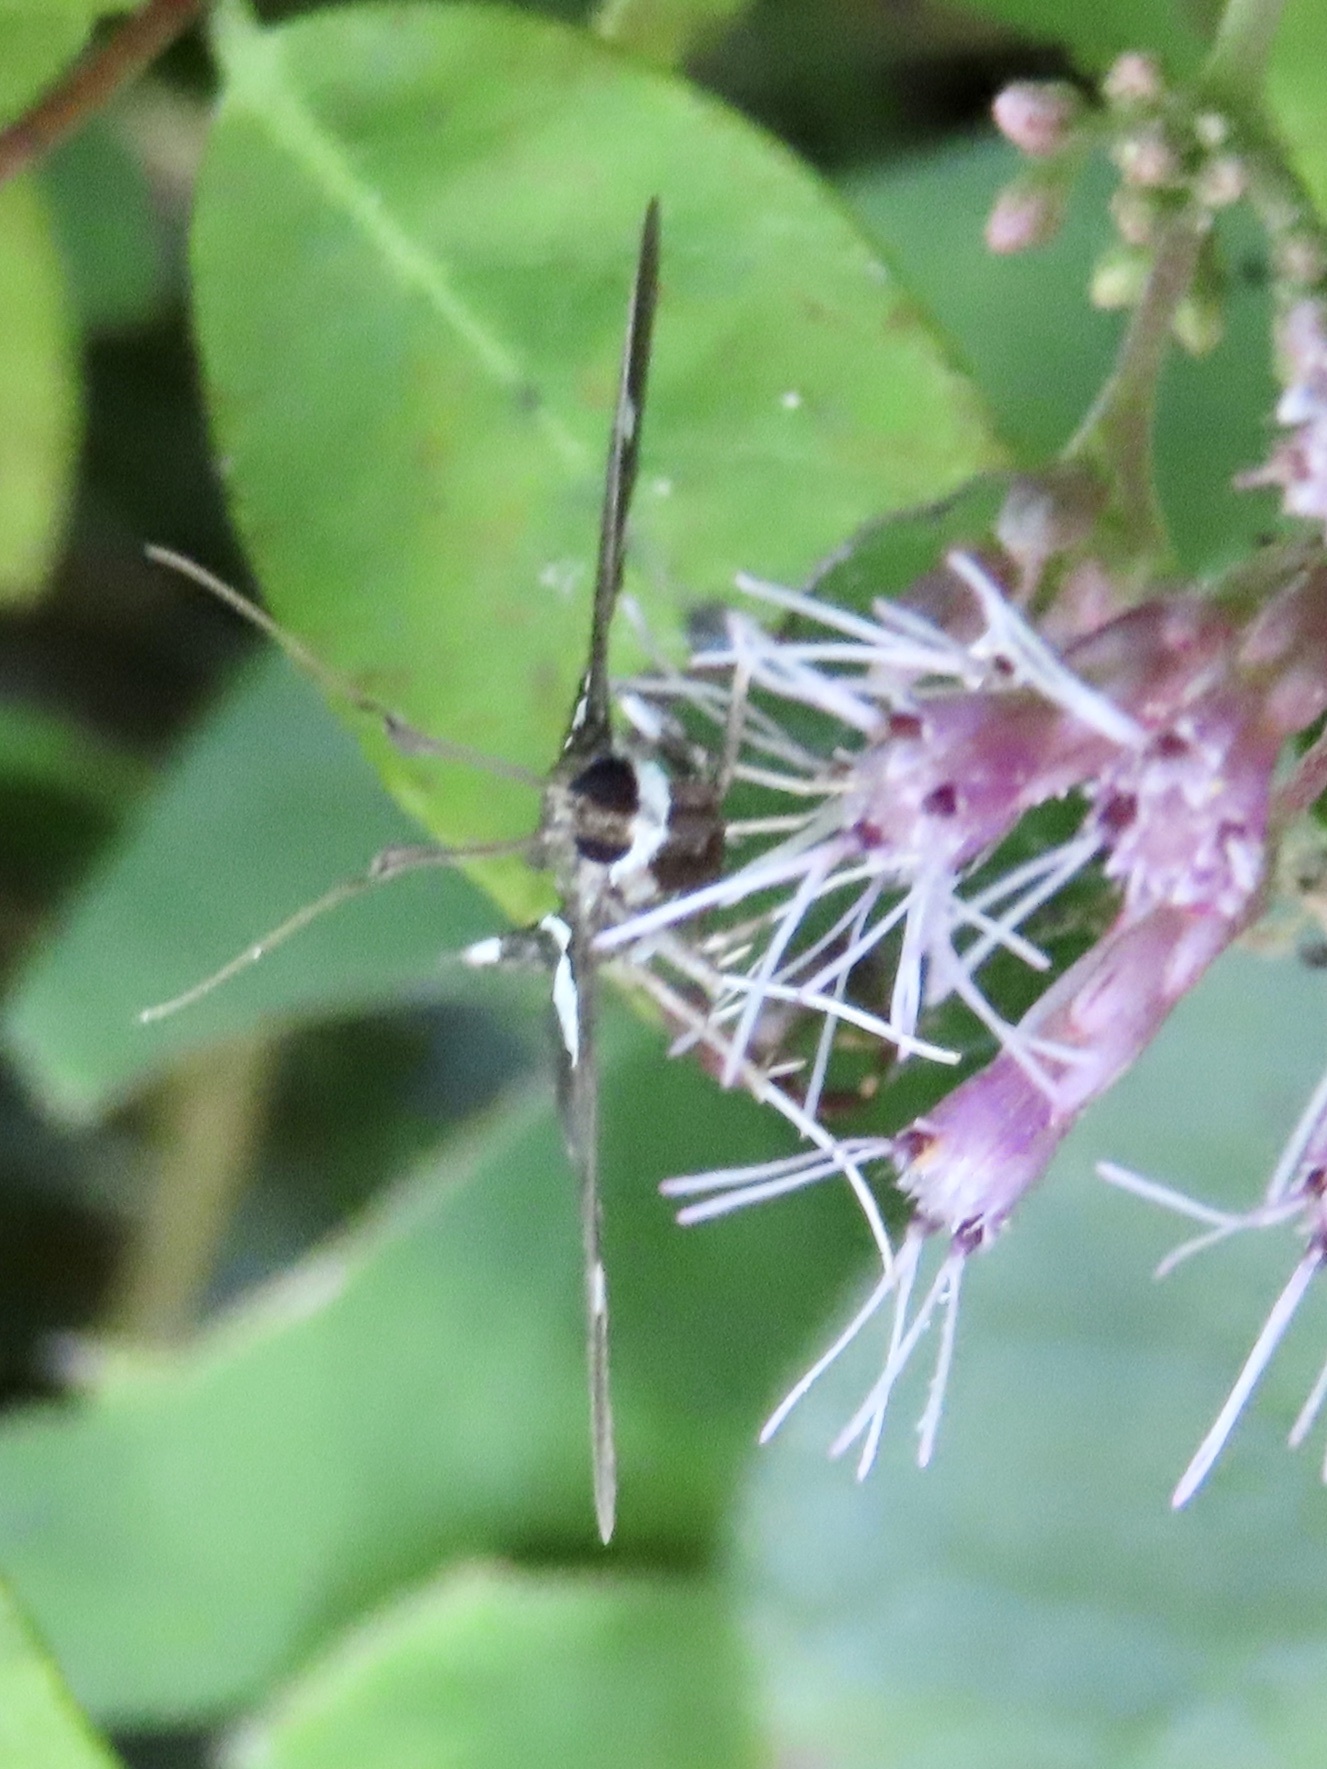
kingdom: Animalia
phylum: Arthropoda
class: Insecta
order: Lepidoptera
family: Crambidae
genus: Desmia
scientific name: Desmia
